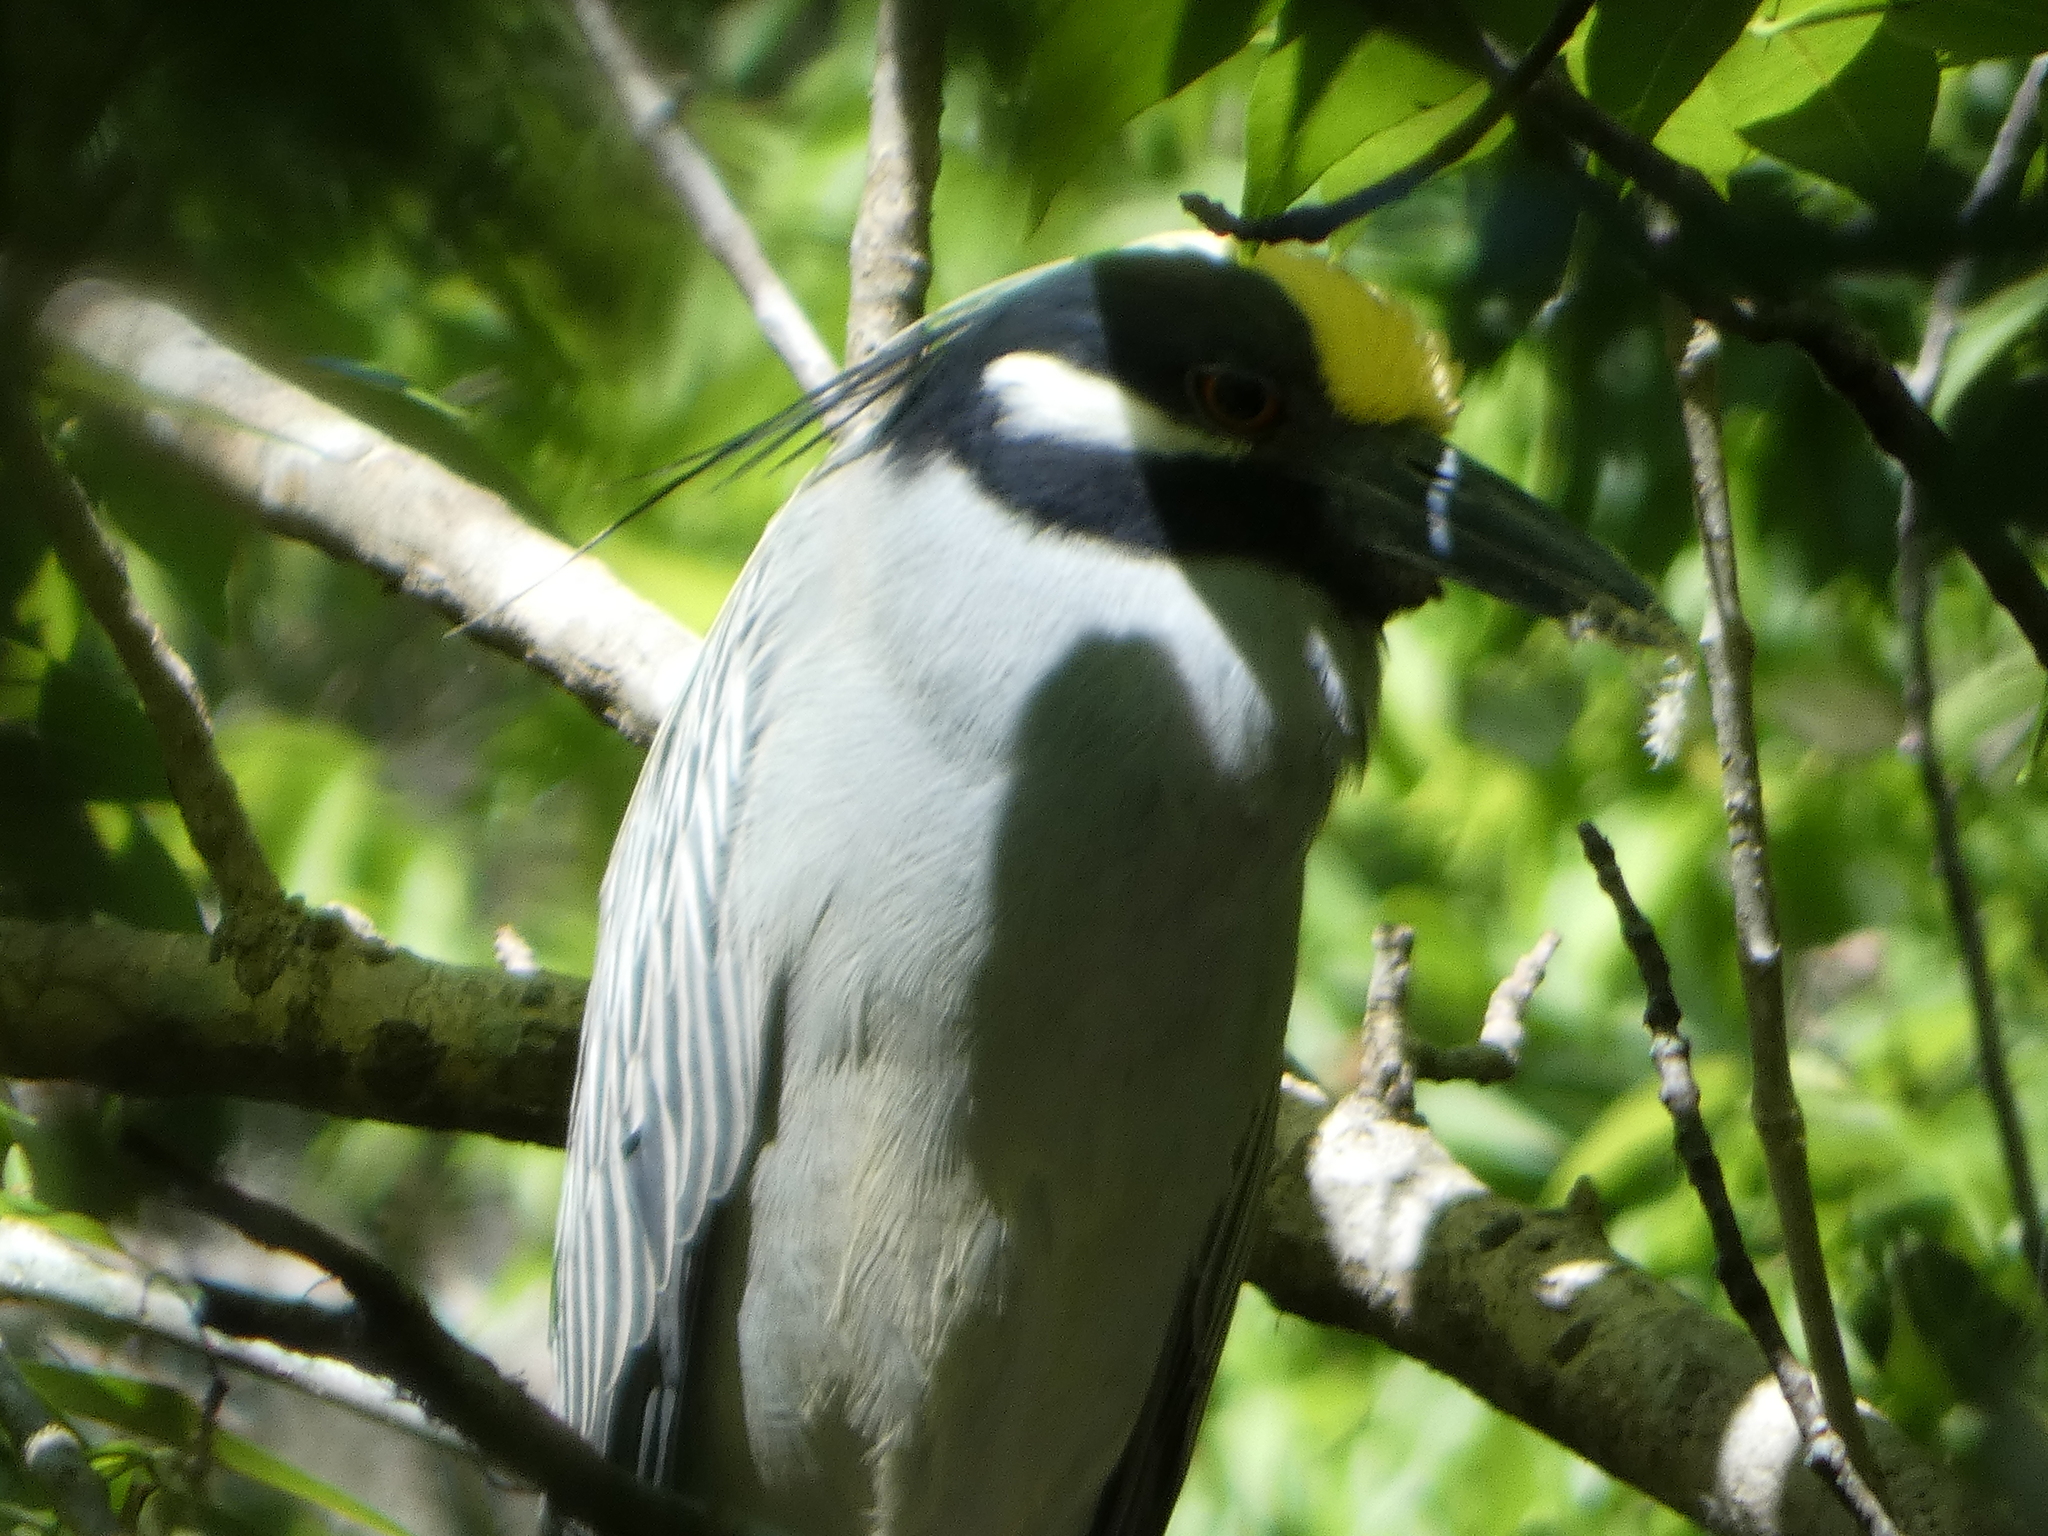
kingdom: Animalia
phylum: Chordata
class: Aves
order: Pelecaniformes
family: Ardeidae
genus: Nyctanassa
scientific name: Nyctanassa violacea
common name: Yellow-crowned night heron
